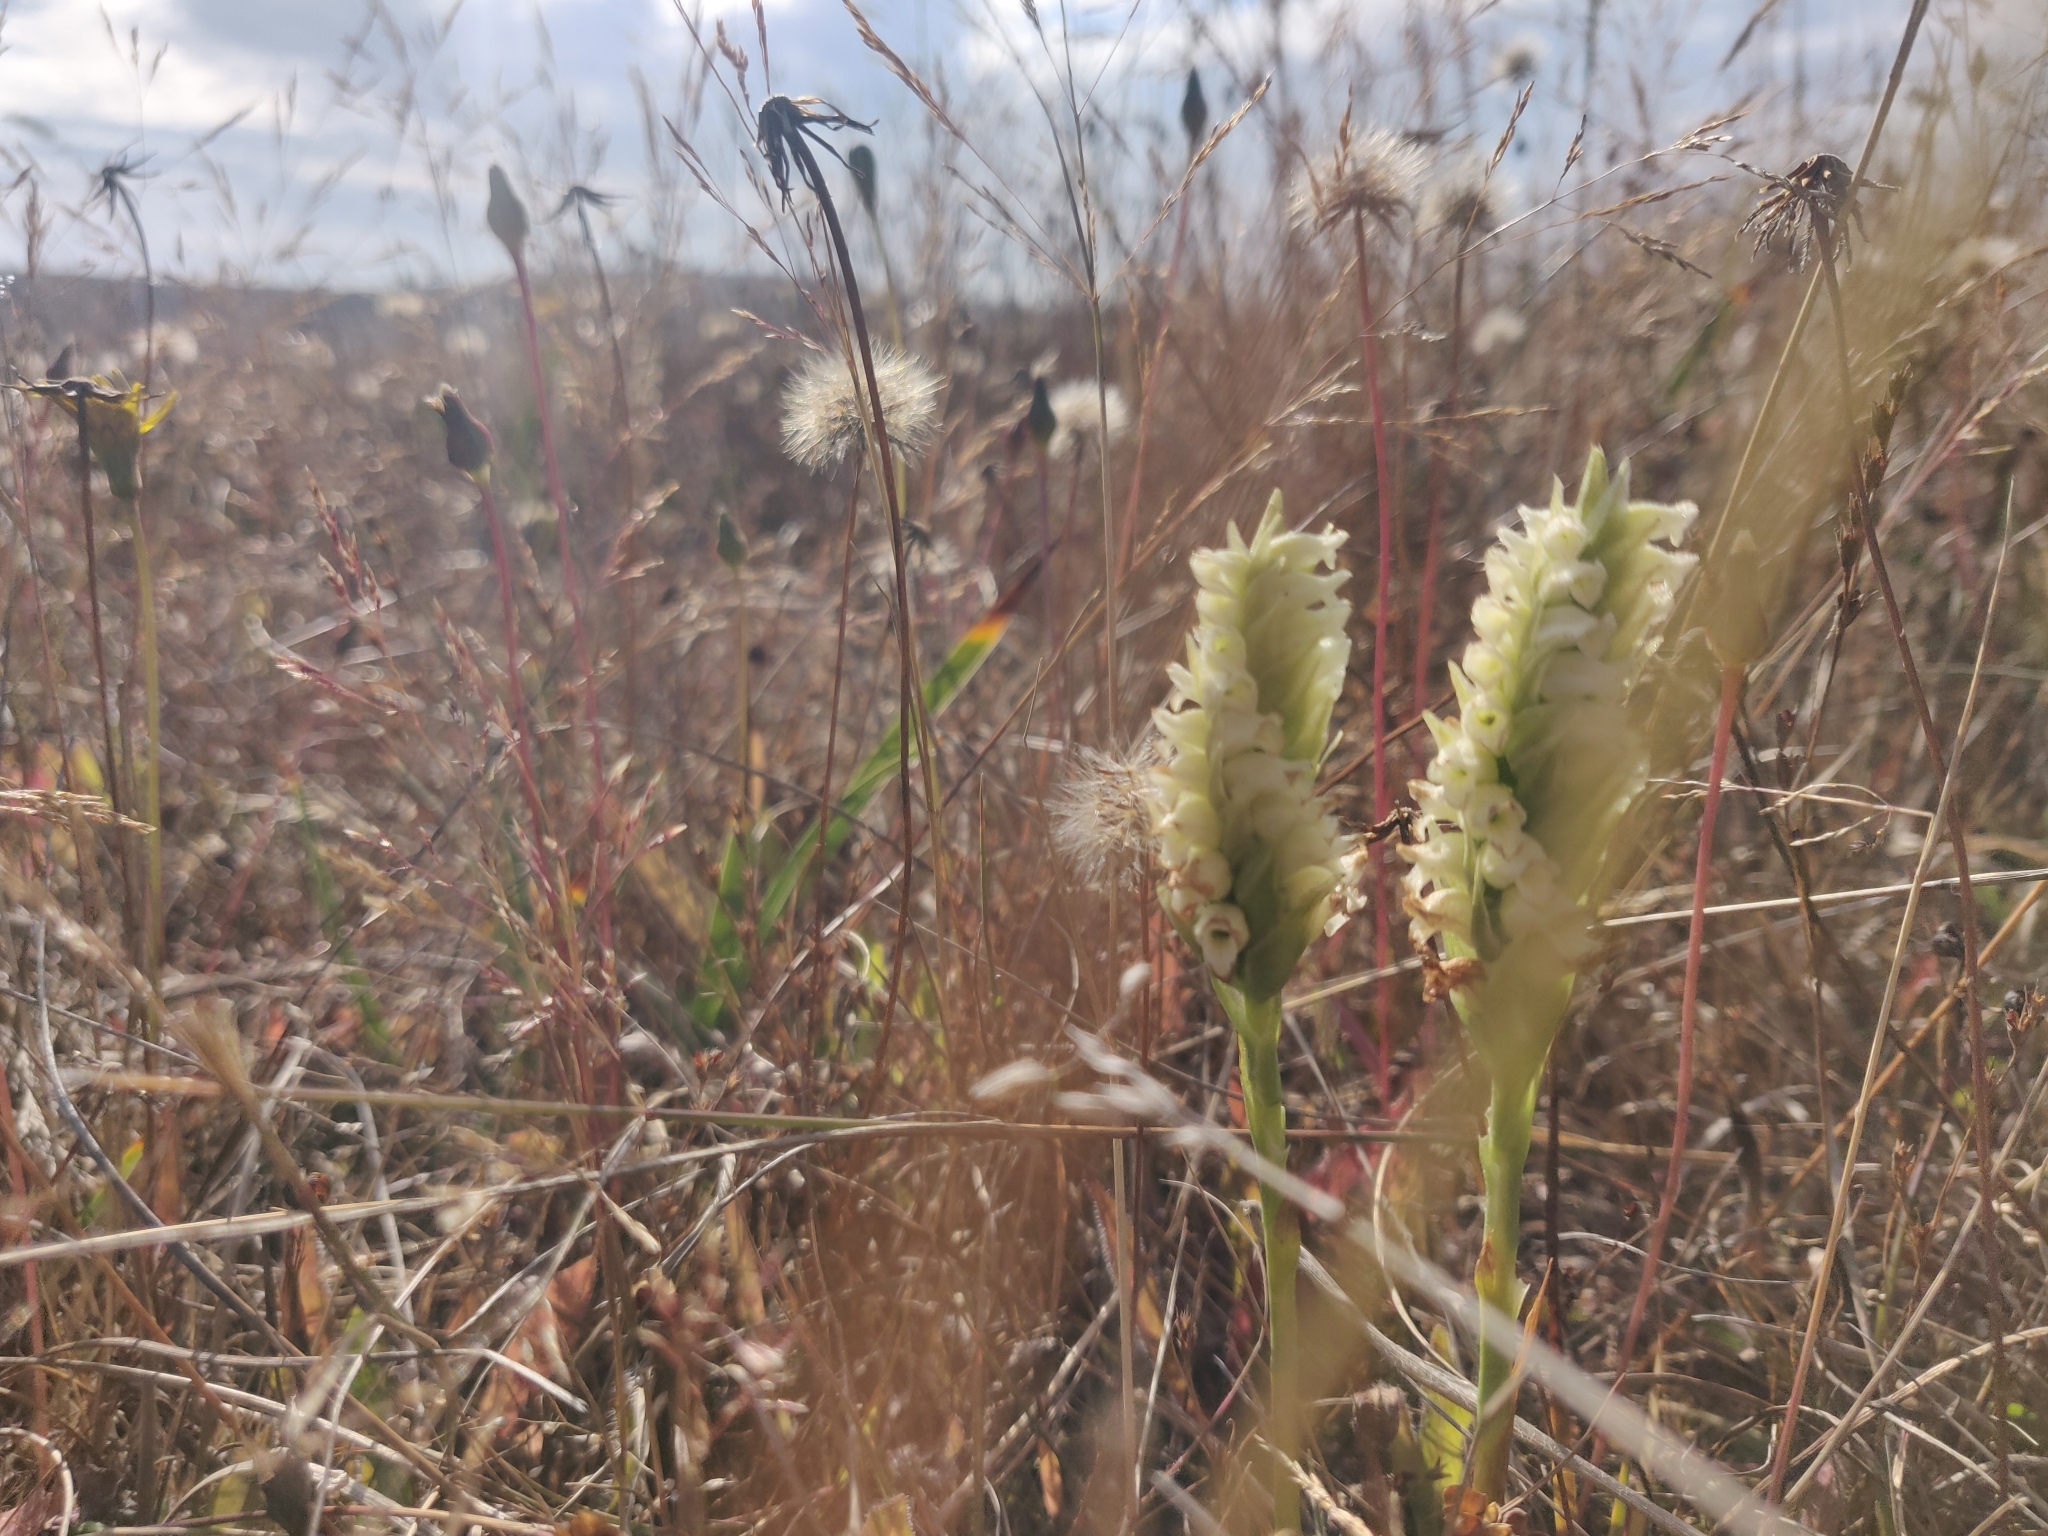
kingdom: Plantae
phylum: Tracheophyta
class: Liliopsida
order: Asparagales
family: Orchidaceae
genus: Spiranthes
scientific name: Spiranthes romanzoffiana
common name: Irish lady's-tresses
